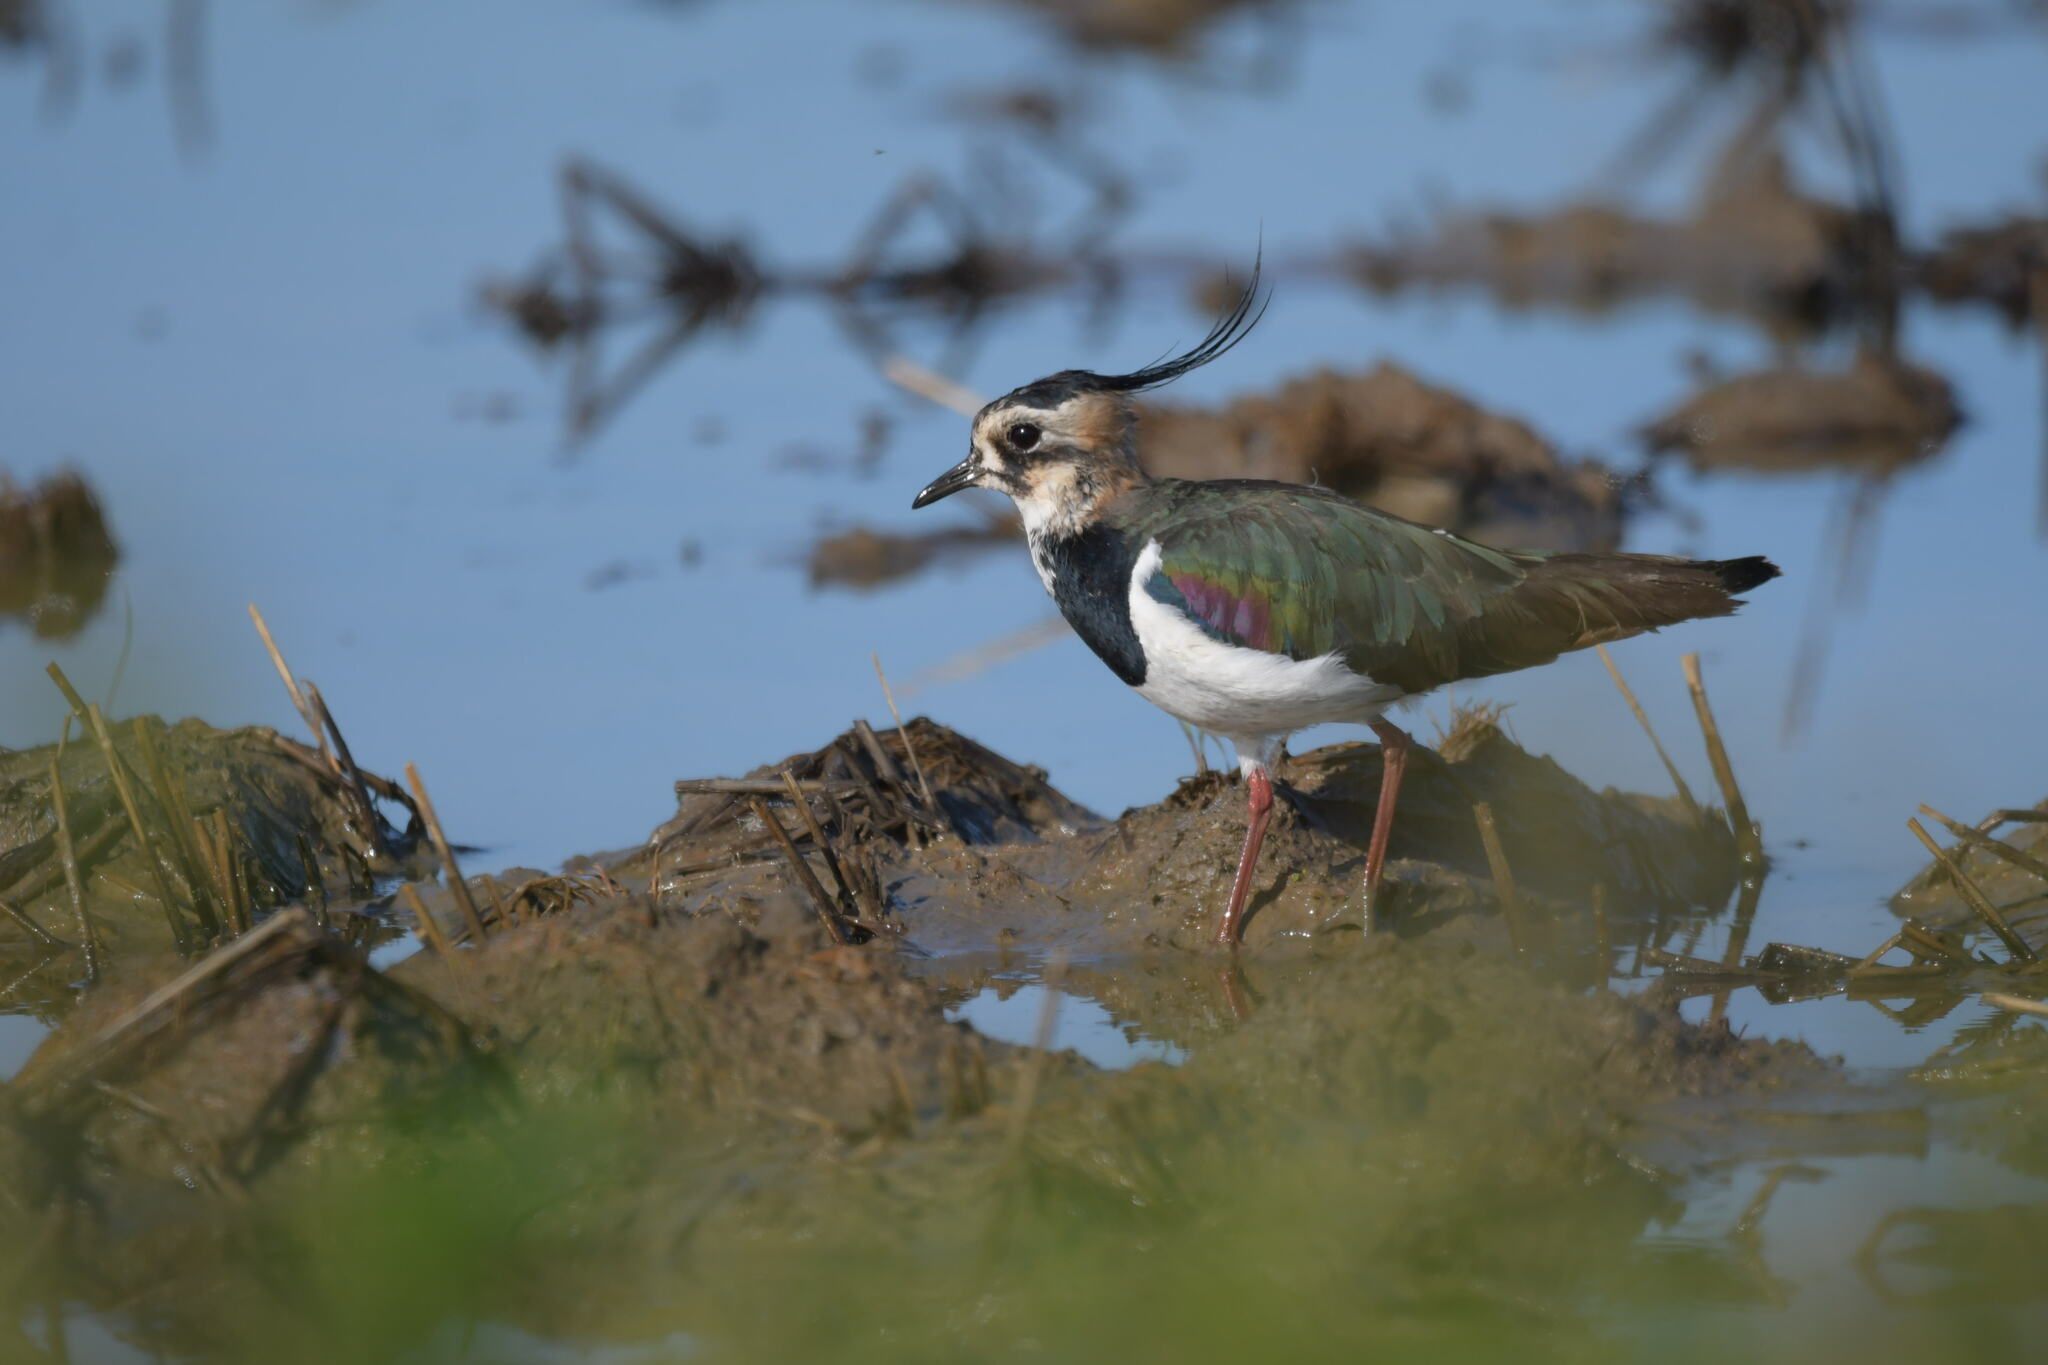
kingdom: Animalia
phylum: Chordata
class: Aves
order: Charadriiformes
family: Charadriidae
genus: Vanellus
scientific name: Vanellus vanellus
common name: Northern lapwing
